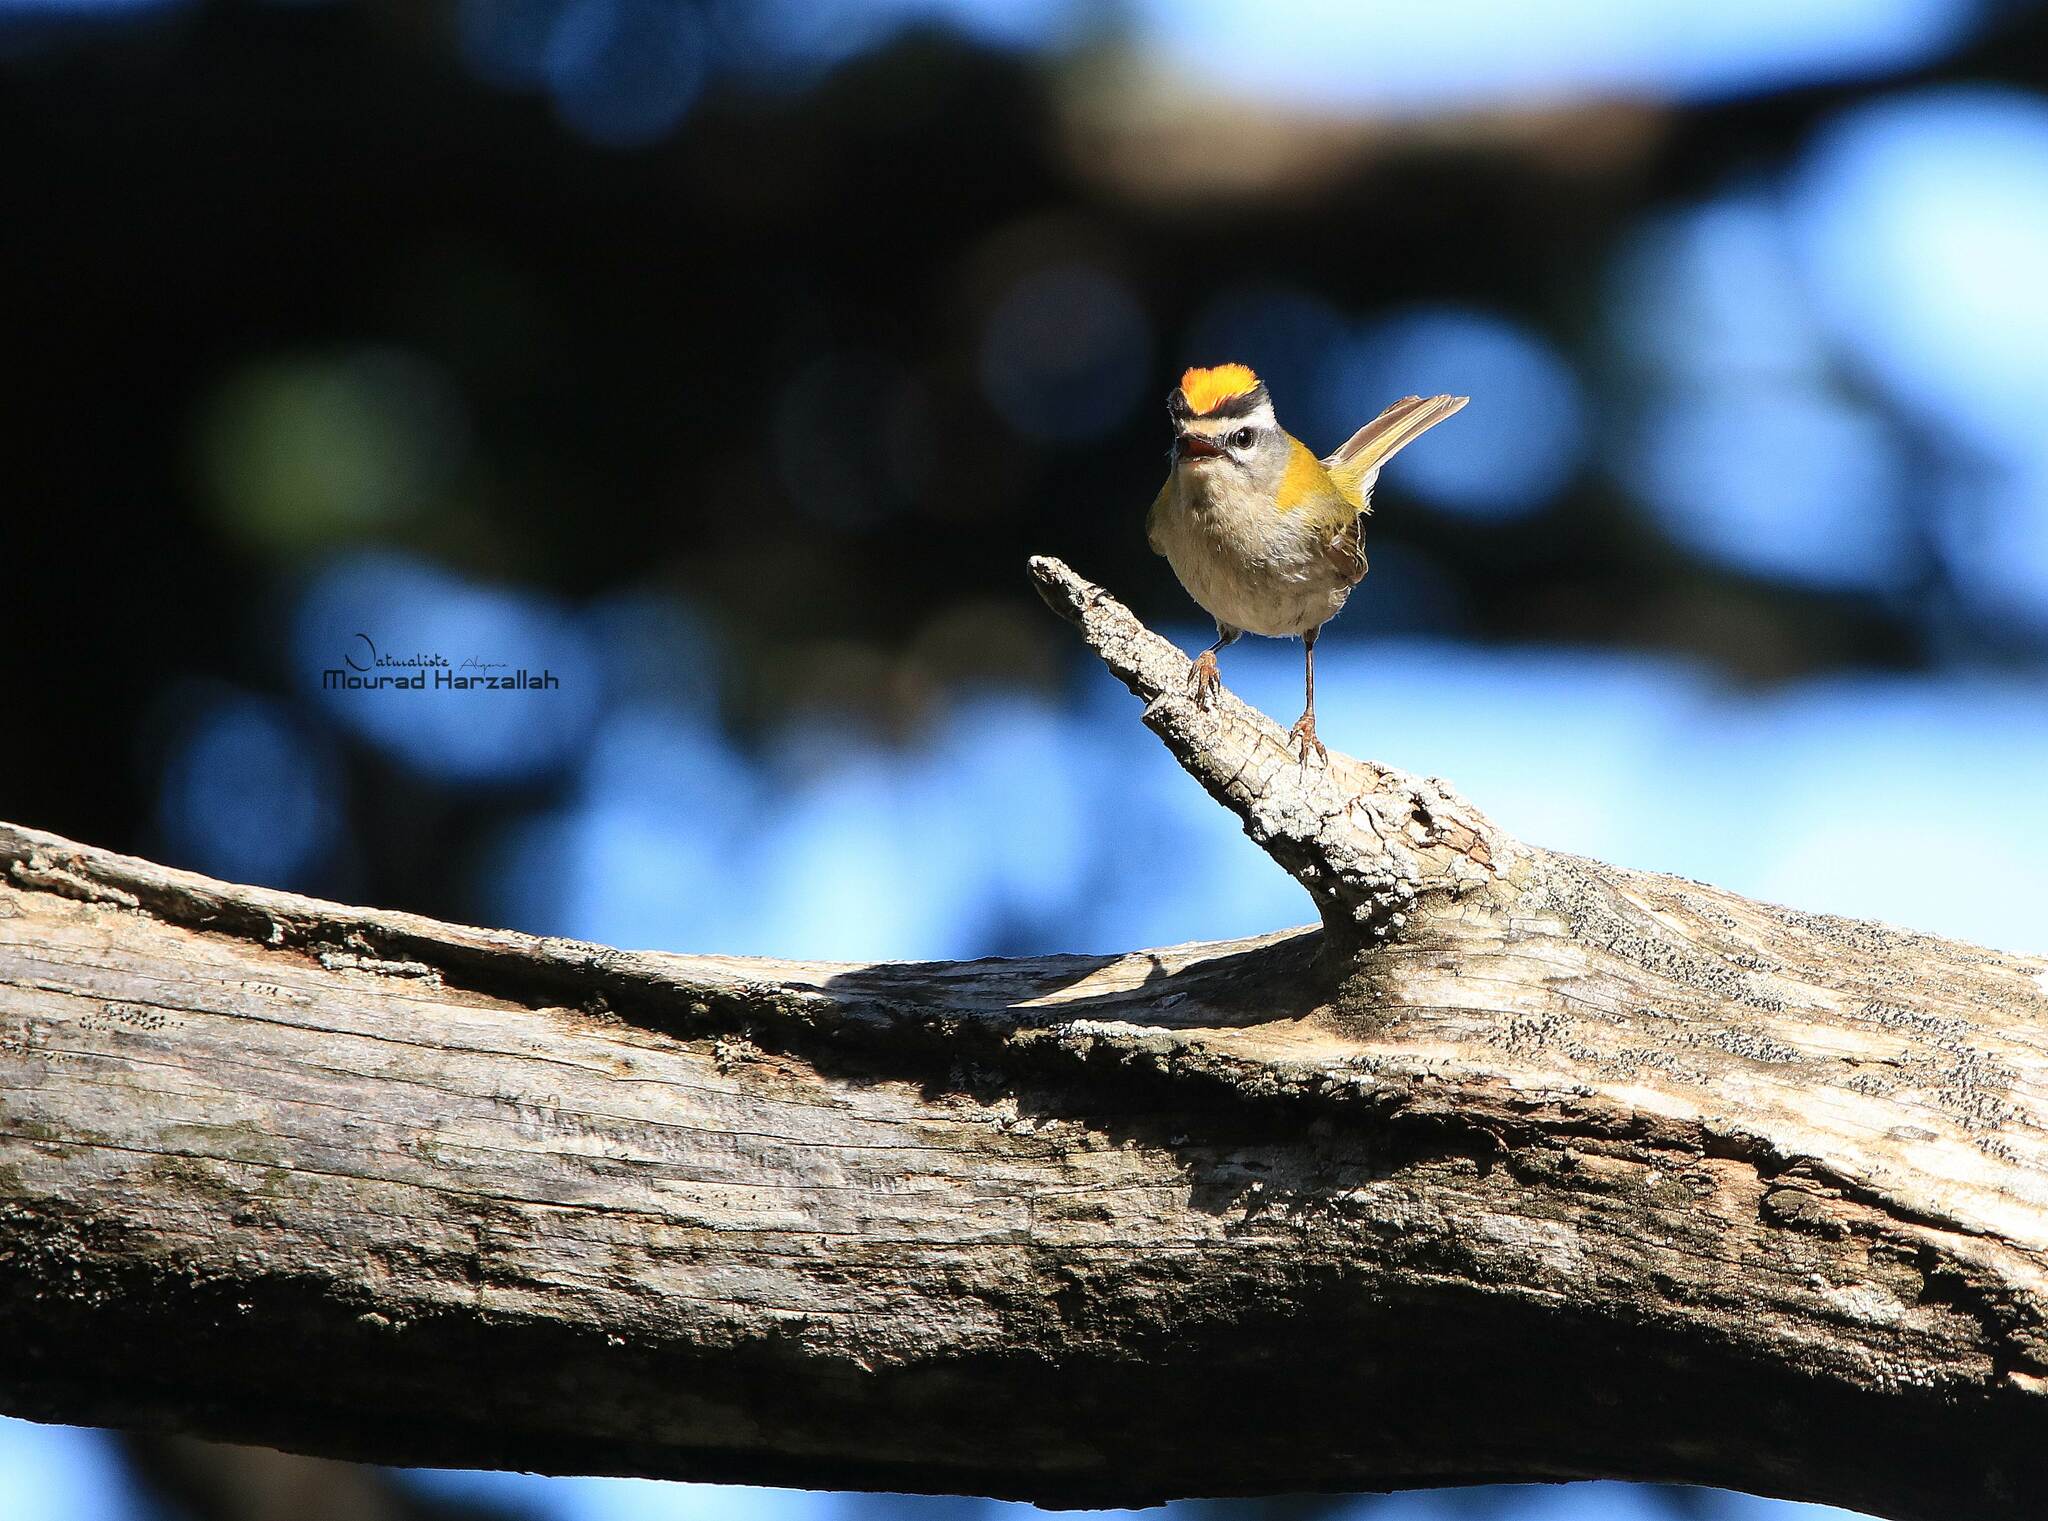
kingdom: Animalia
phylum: Chordata
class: Aves
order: Passeriformes
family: Regulidae
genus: Regulus
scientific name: Regulus ignicapilla
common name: Firecrest
